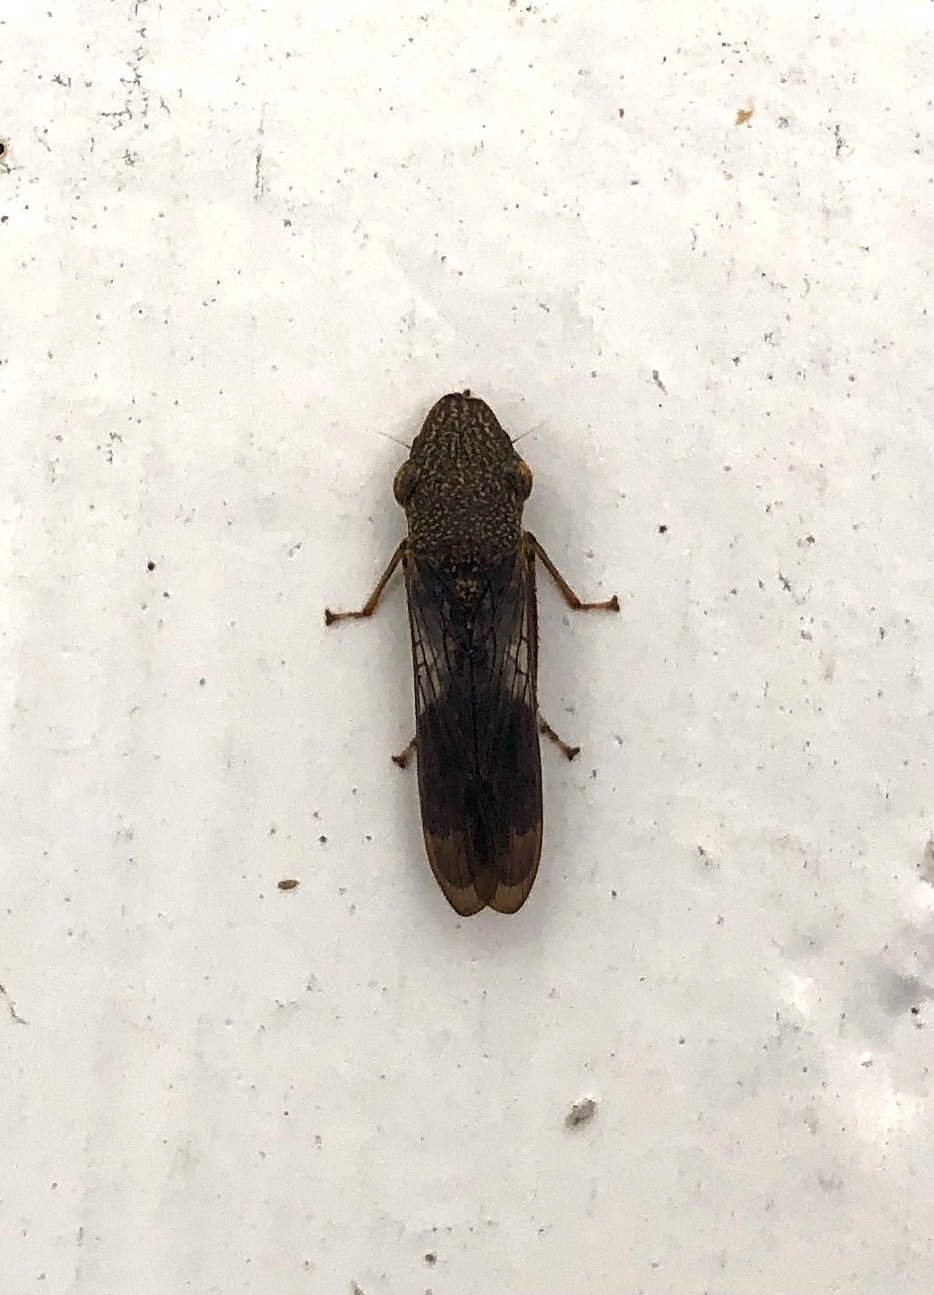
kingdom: Animalia
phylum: Arthropoda
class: Insecta
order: Hemiptera
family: Cicadellidae
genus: Homalodisca
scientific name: Homalodisca vitripennis
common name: Glassy-winged sharpshooter
